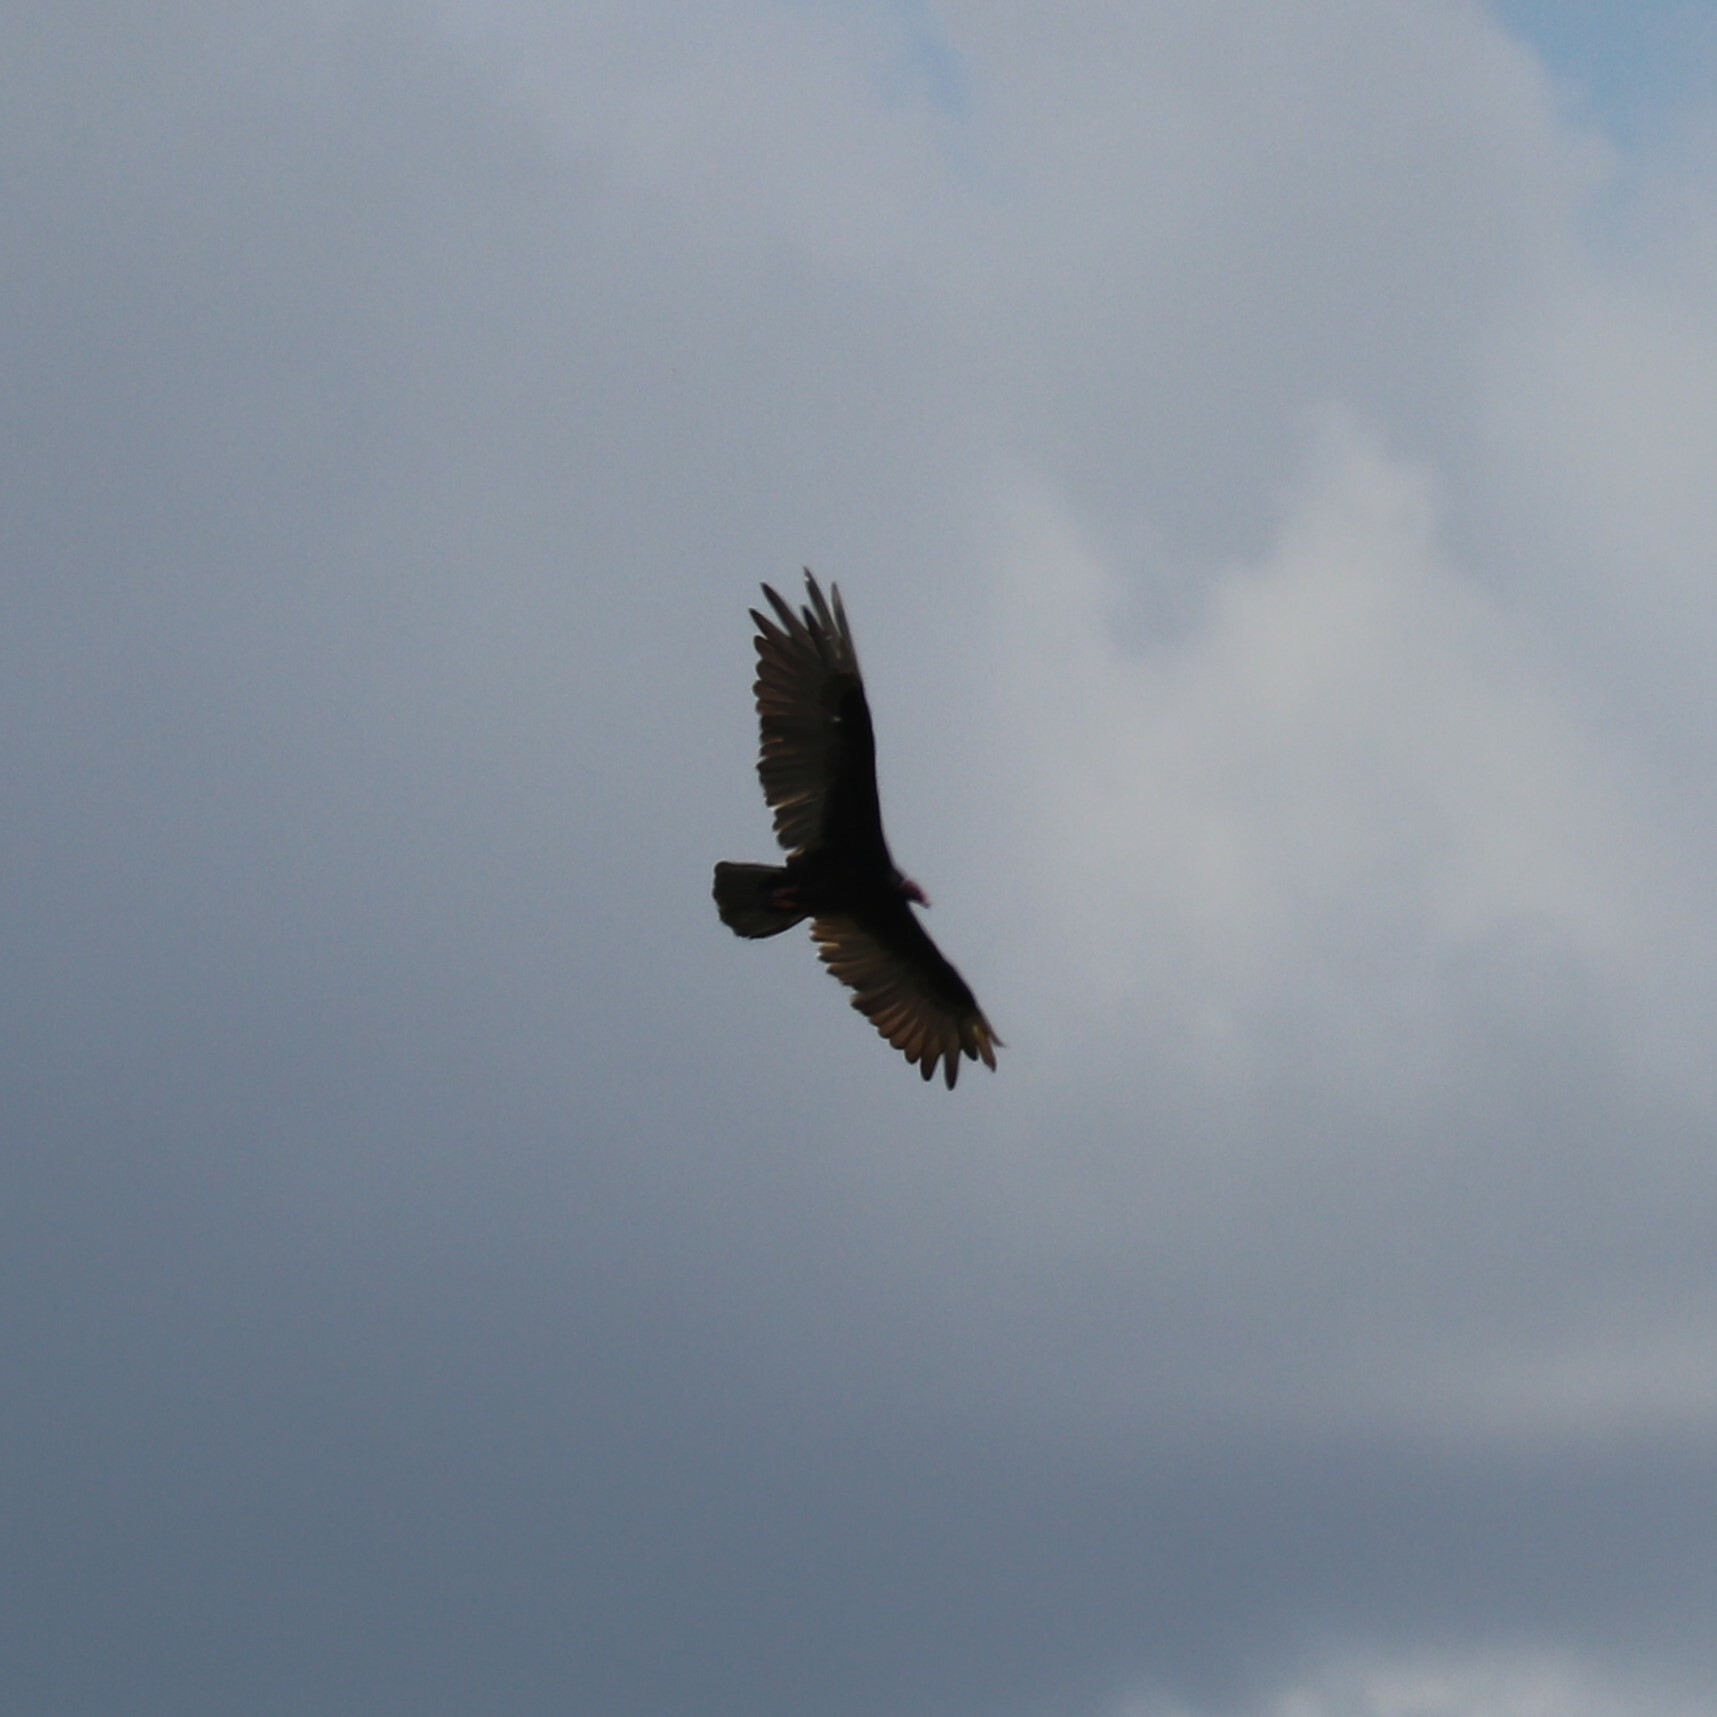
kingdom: Animalia
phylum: Chordata
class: Aves
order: Accipitriformes
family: Cathartidae
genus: Cathartes
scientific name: Cathartes aura
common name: Turkey vulture
